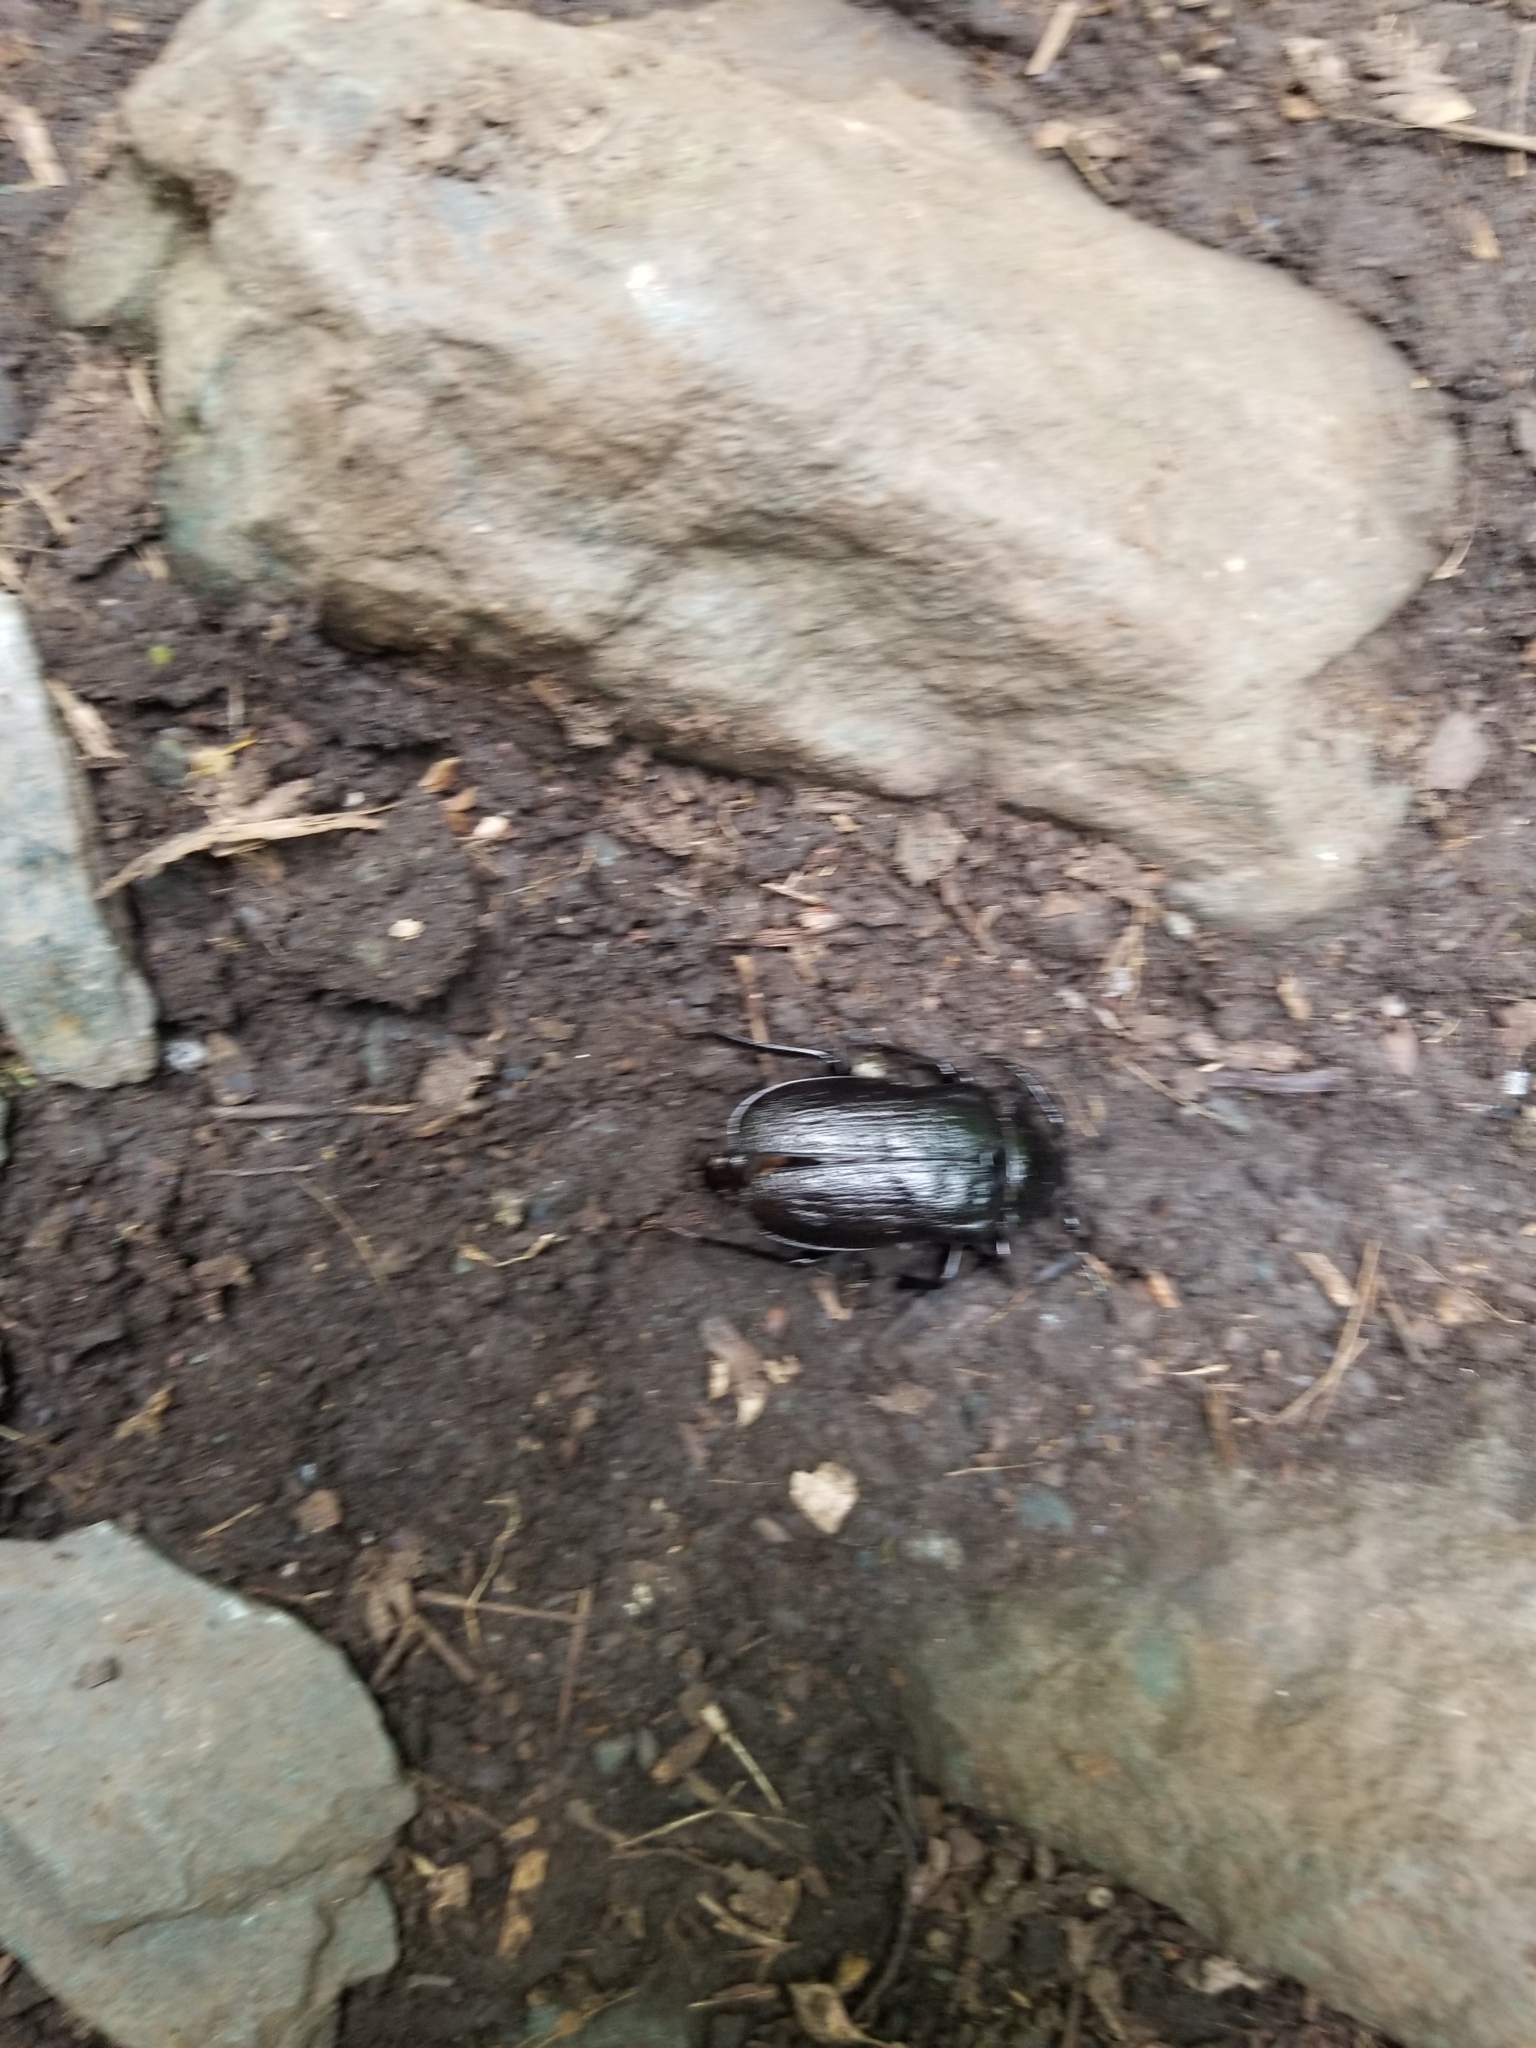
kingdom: Animalia
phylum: Arthropoda
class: Insecta
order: Coleoptera
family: Cerambycidae
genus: Prionus
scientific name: Prionus laticollis
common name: Broad necked prionus
